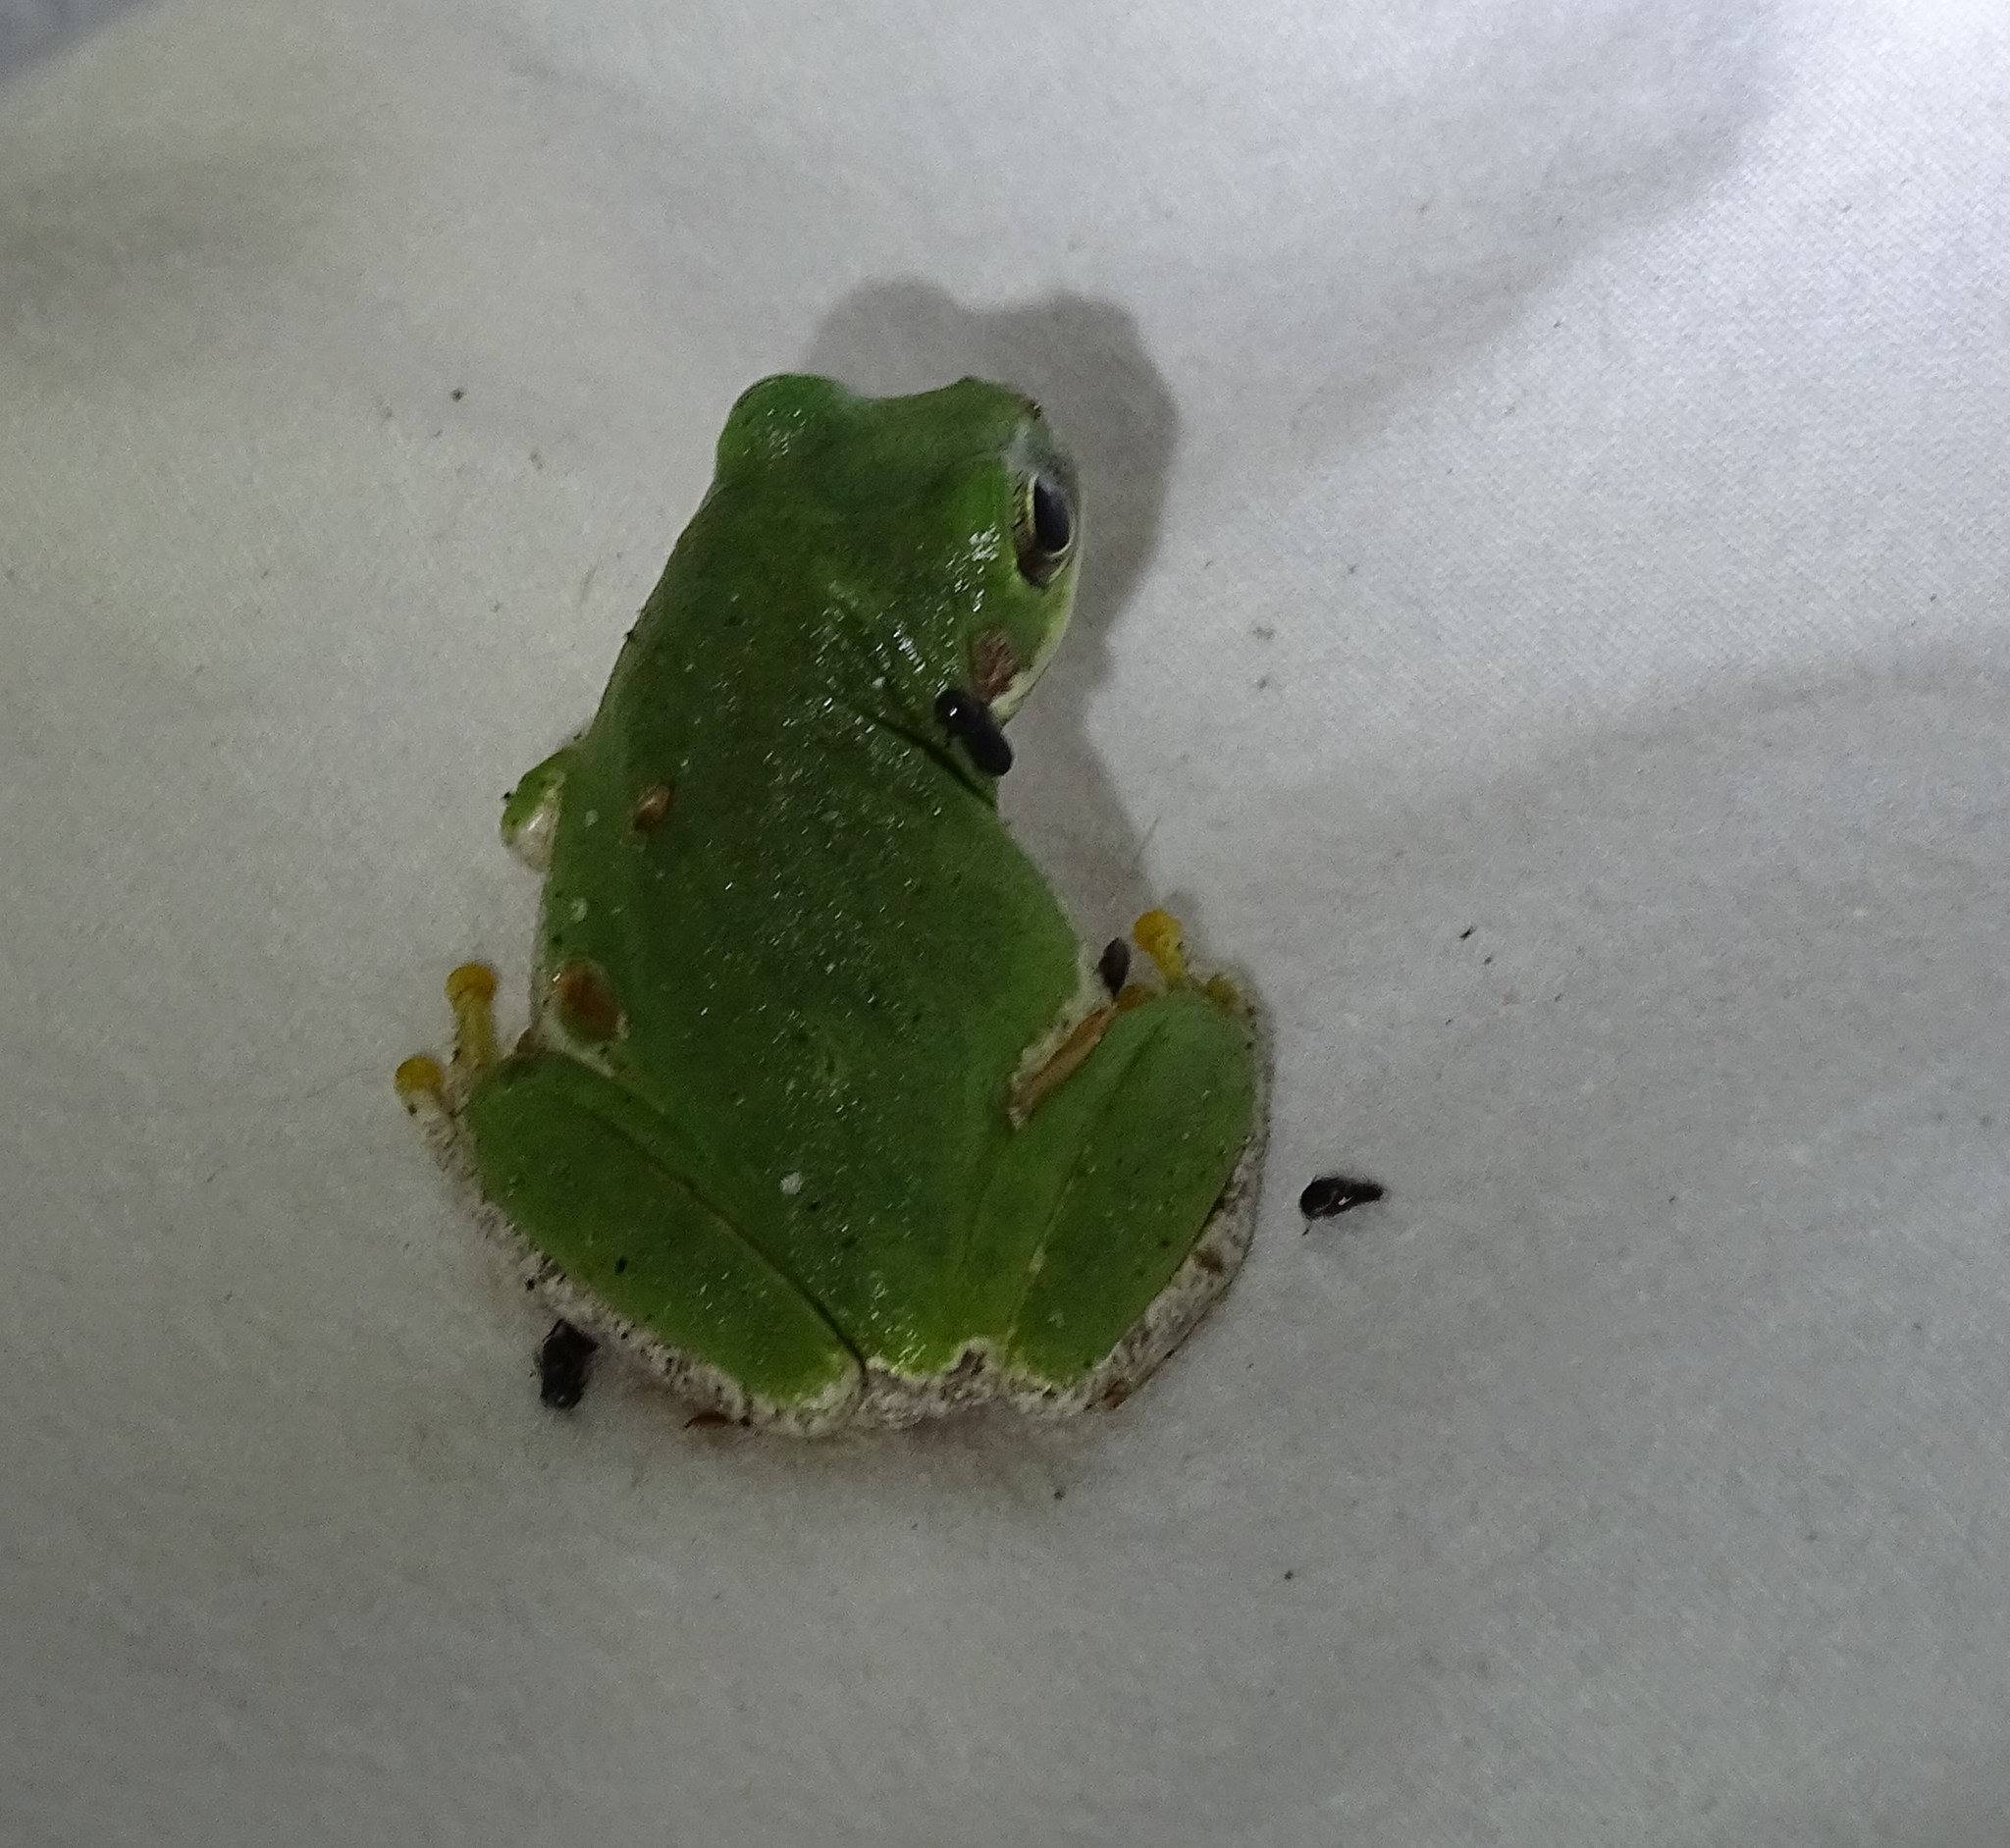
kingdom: Animalia
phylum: Chordata
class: Amphibia
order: Anura
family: Hylidae
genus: Dryophytes
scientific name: Dryophytes squirellus
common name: Squirrel treefrog
